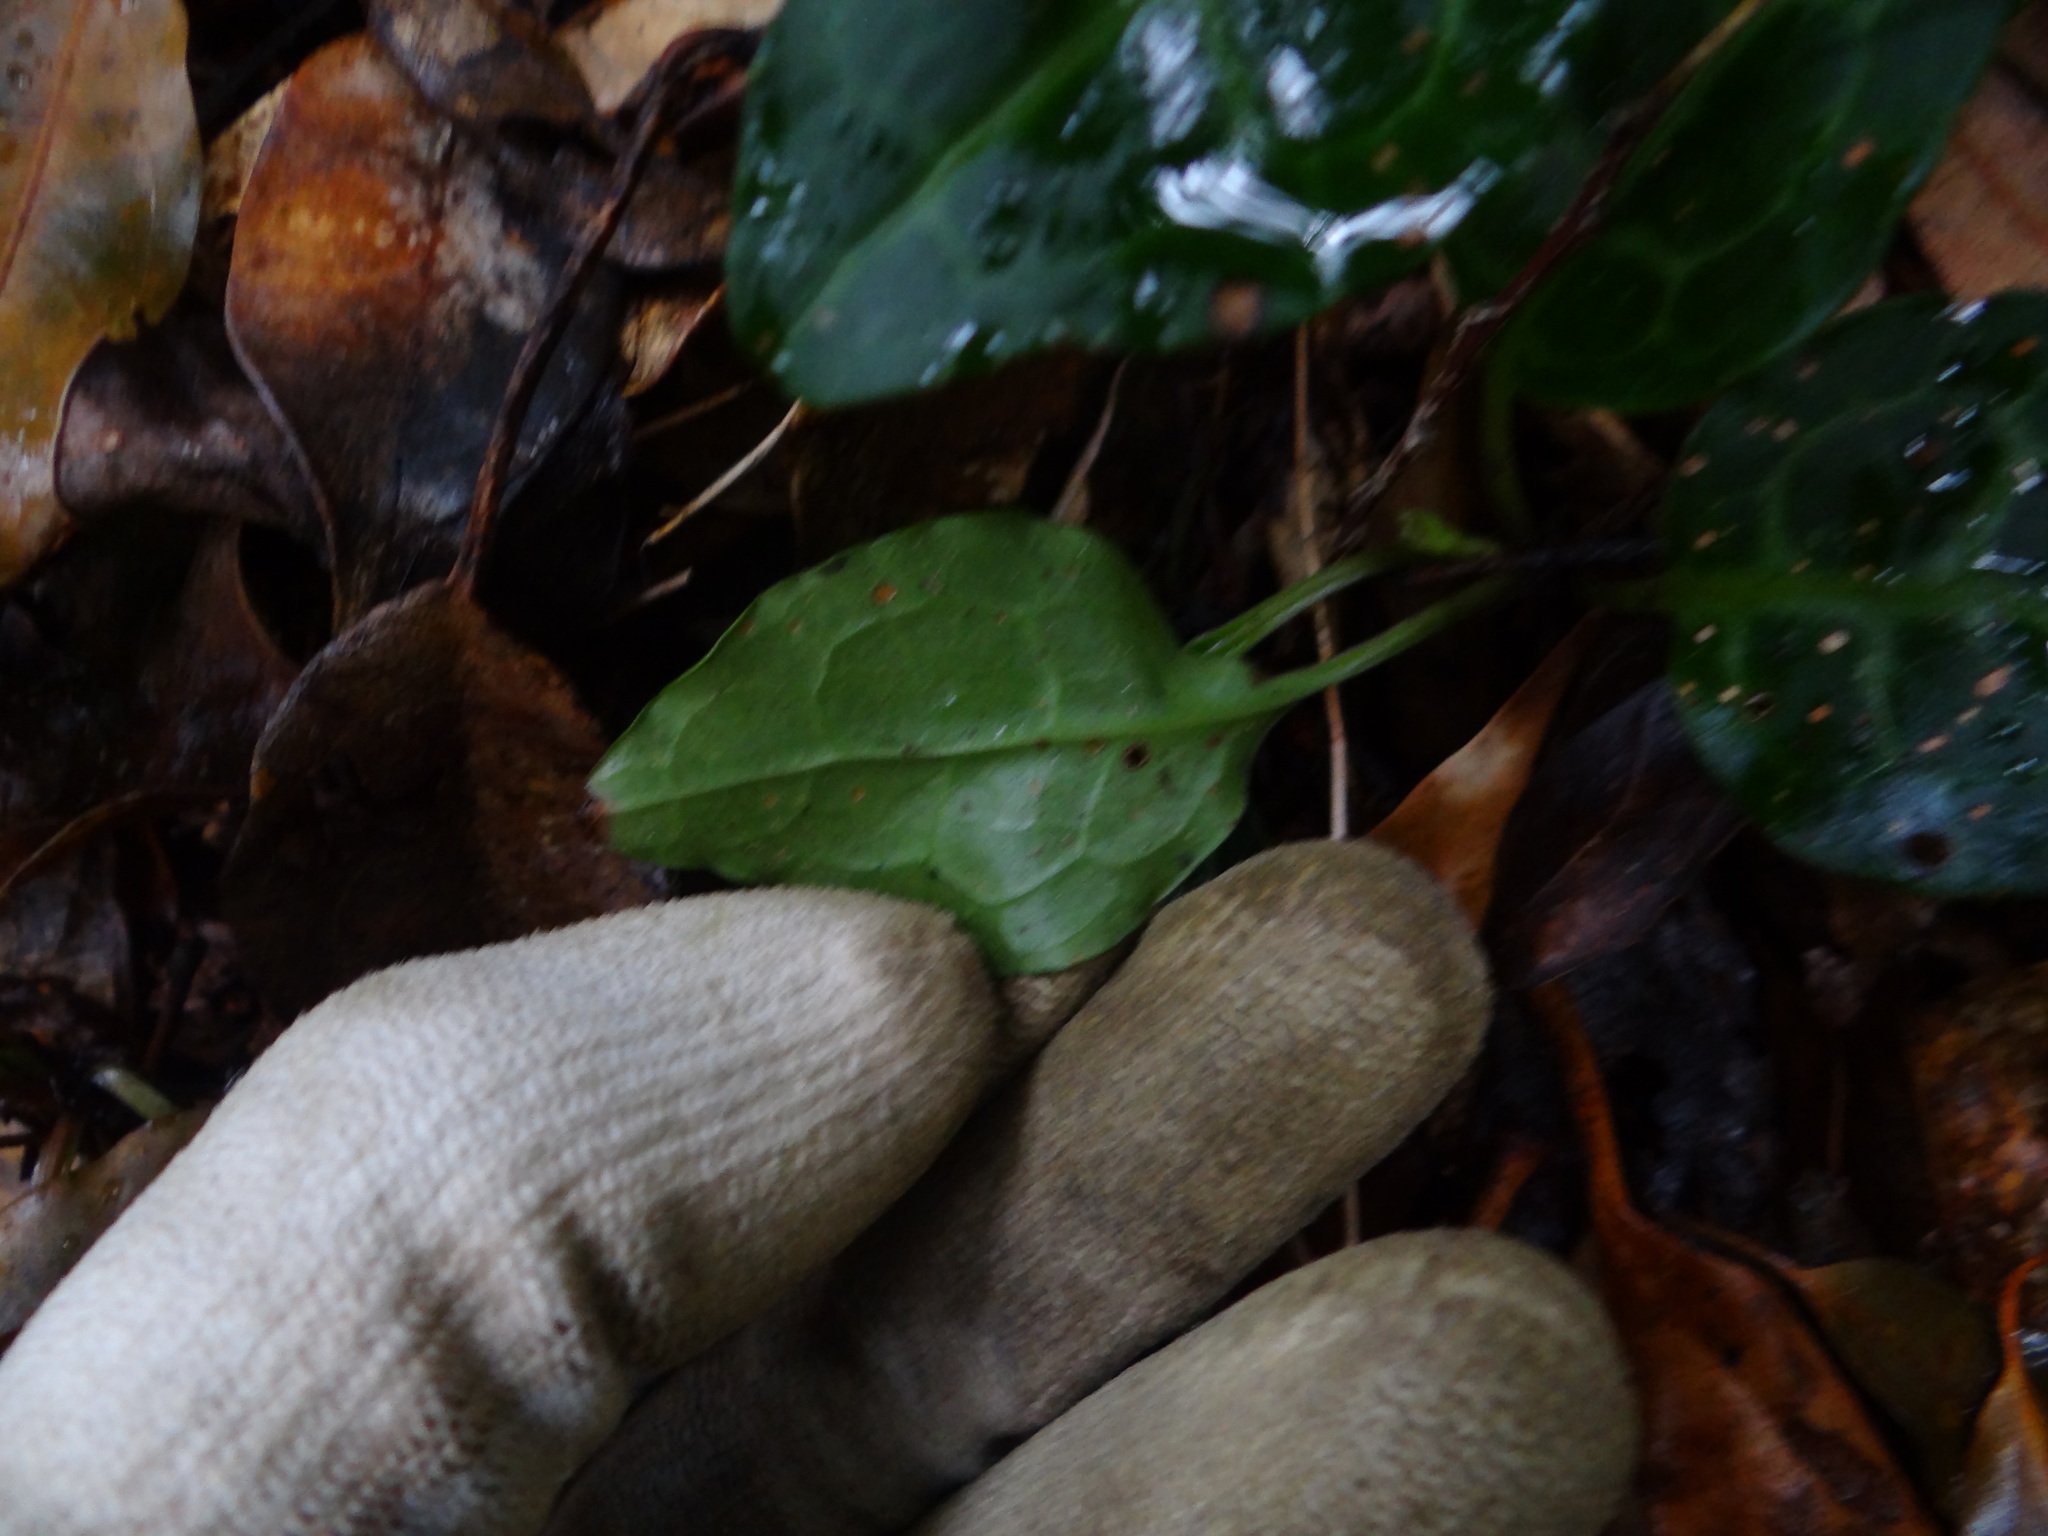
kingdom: Plantae
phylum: Tracheophyta
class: Magnoliopsida
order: Ericales
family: Ericaceae
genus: Pyrola
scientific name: Pyrola alboreticulata
